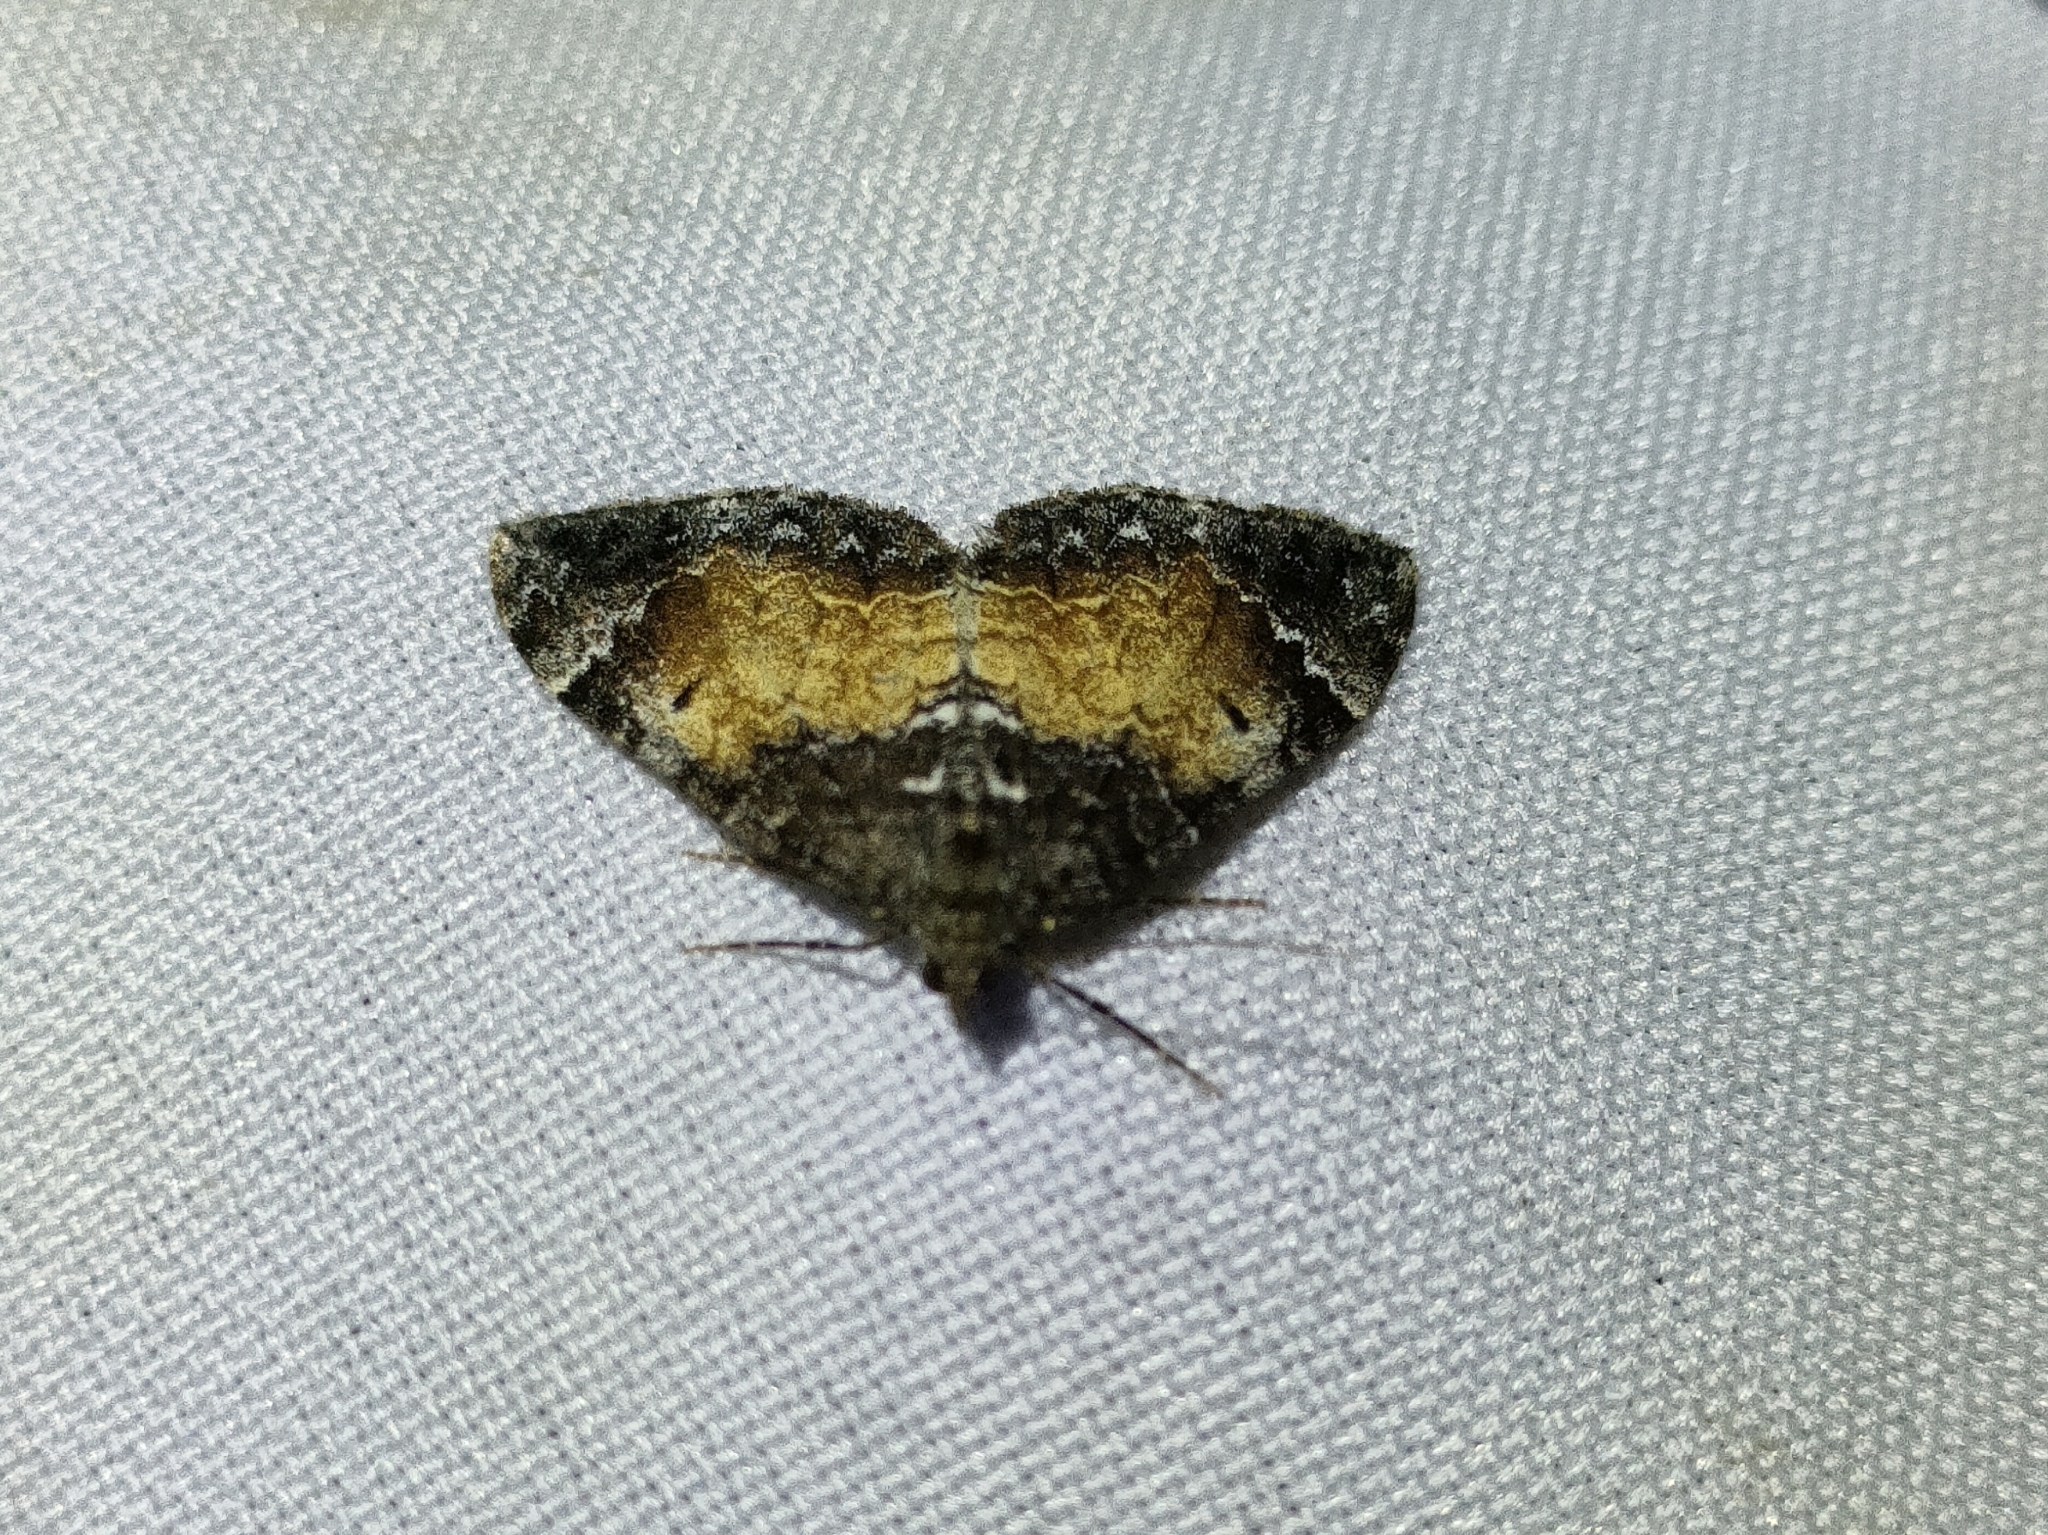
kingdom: Animalia
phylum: Arthropoda
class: Insecta
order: Lepidoptera
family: Geometridae
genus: Dysstroma
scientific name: Dysstroma truncata
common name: Common marbled carpet
